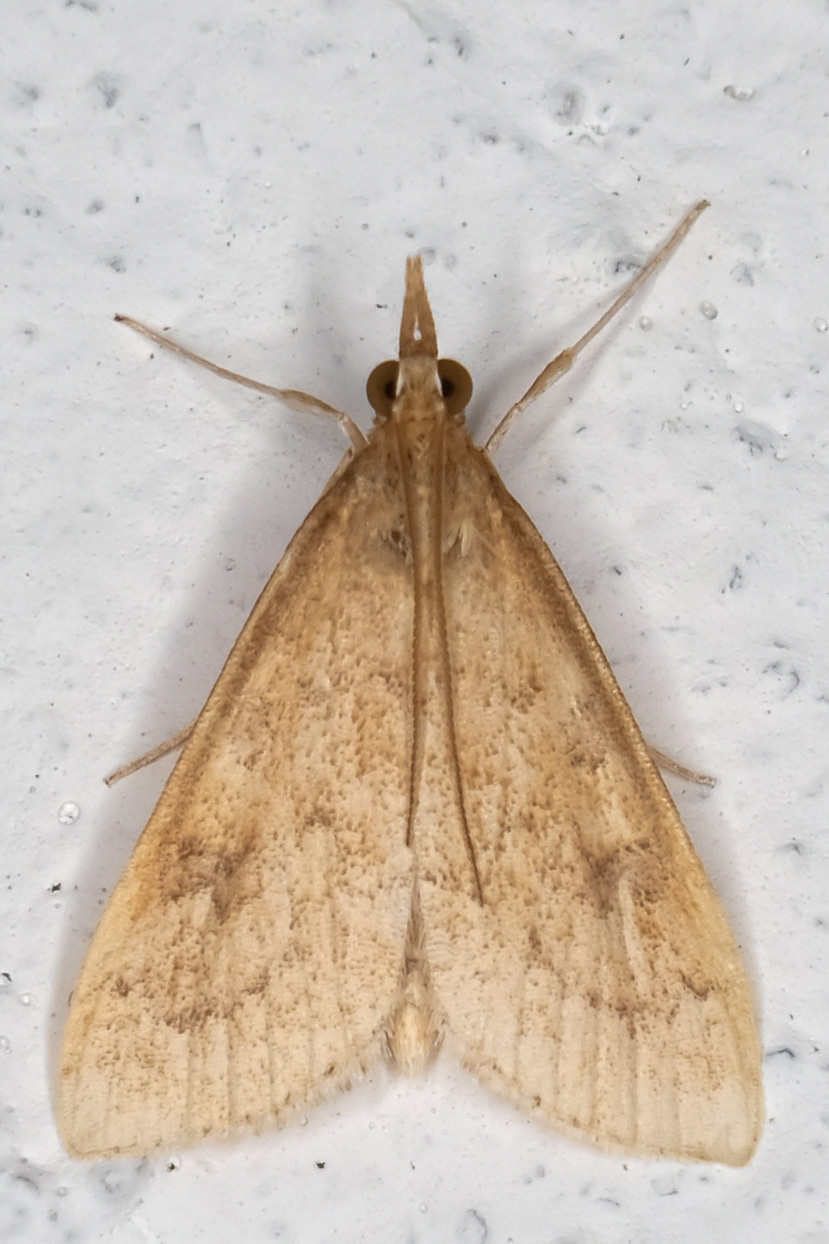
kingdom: Animalia
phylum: Arthropoda
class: Insecta
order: Lepidoptera
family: Crambidae
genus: Udea
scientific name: Udea rubigalis
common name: Celery leaftier moth
